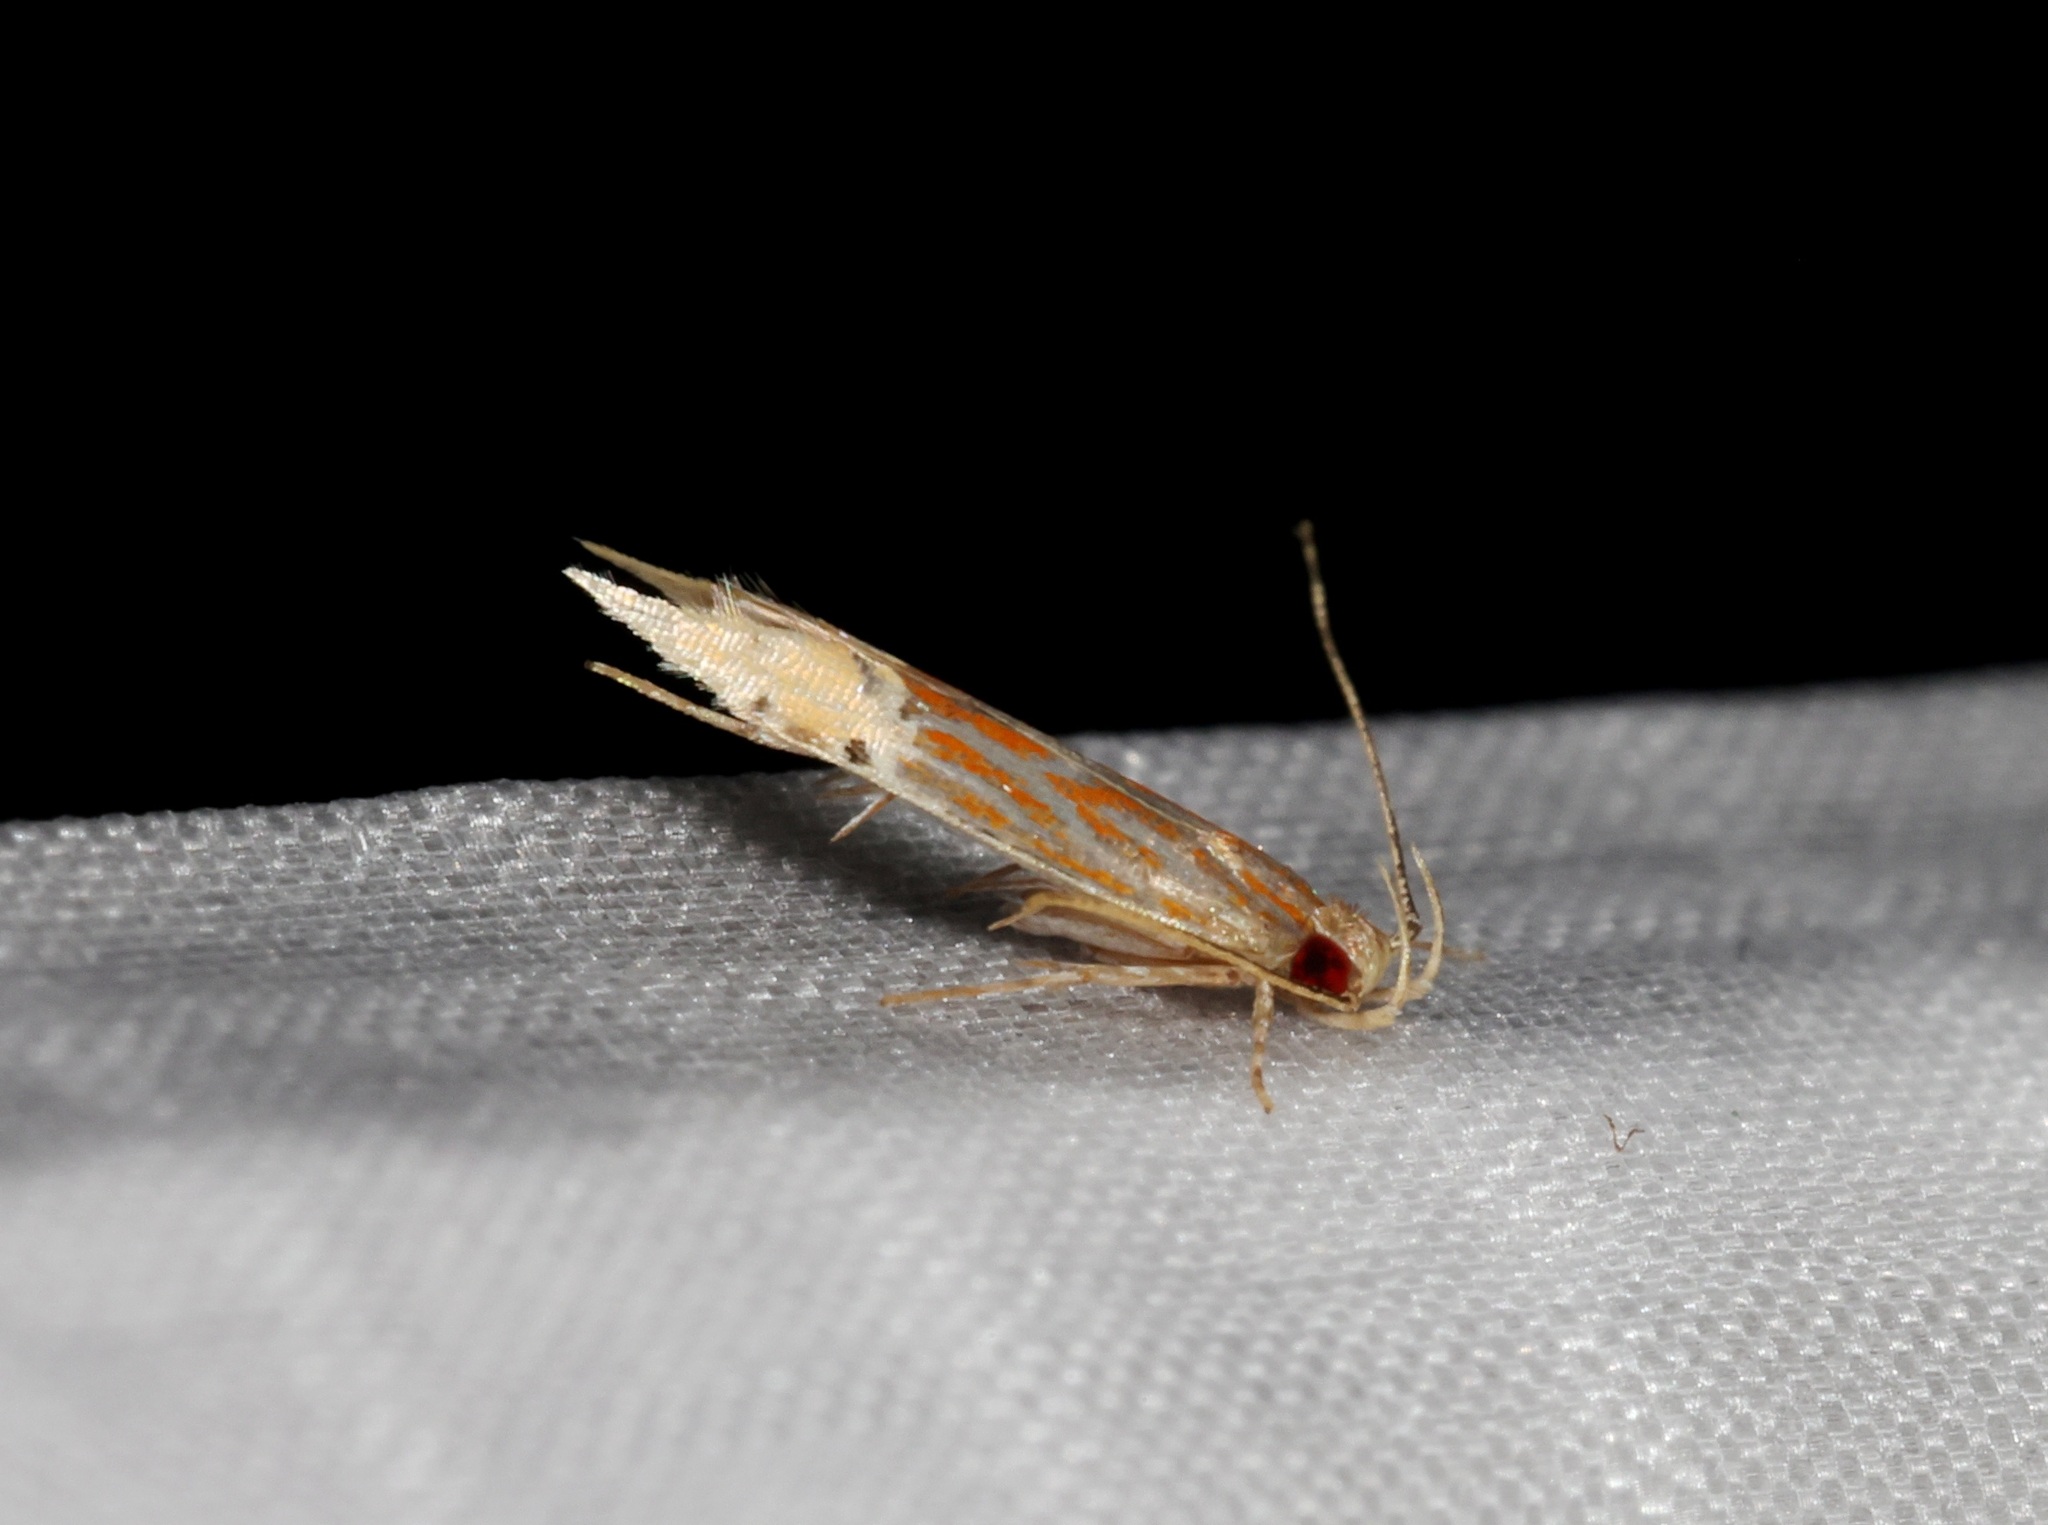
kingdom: Animalia
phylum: Arthropoda
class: Insecta
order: Lepidoptera
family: Cosmopterigidae
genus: Labdia
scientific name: Labdia semicoccinea
